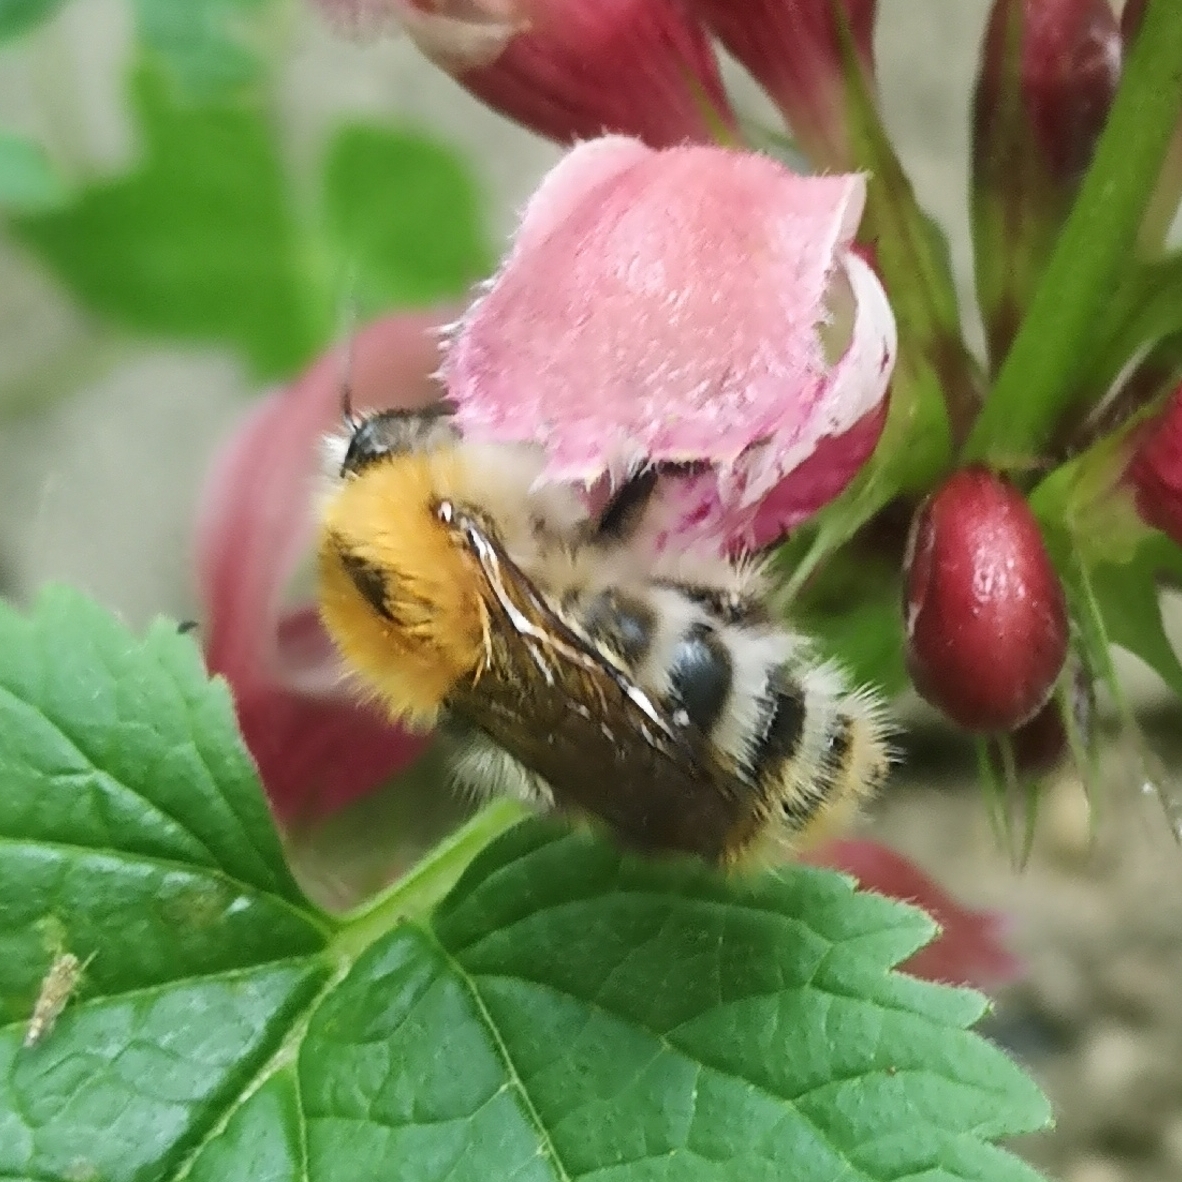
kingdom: Animalia
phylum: Arthropoda
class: Insecta
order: Hymenoptera
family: Apidae
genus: Bombus
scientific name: Bombus pascuorum
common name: Common carder bee
